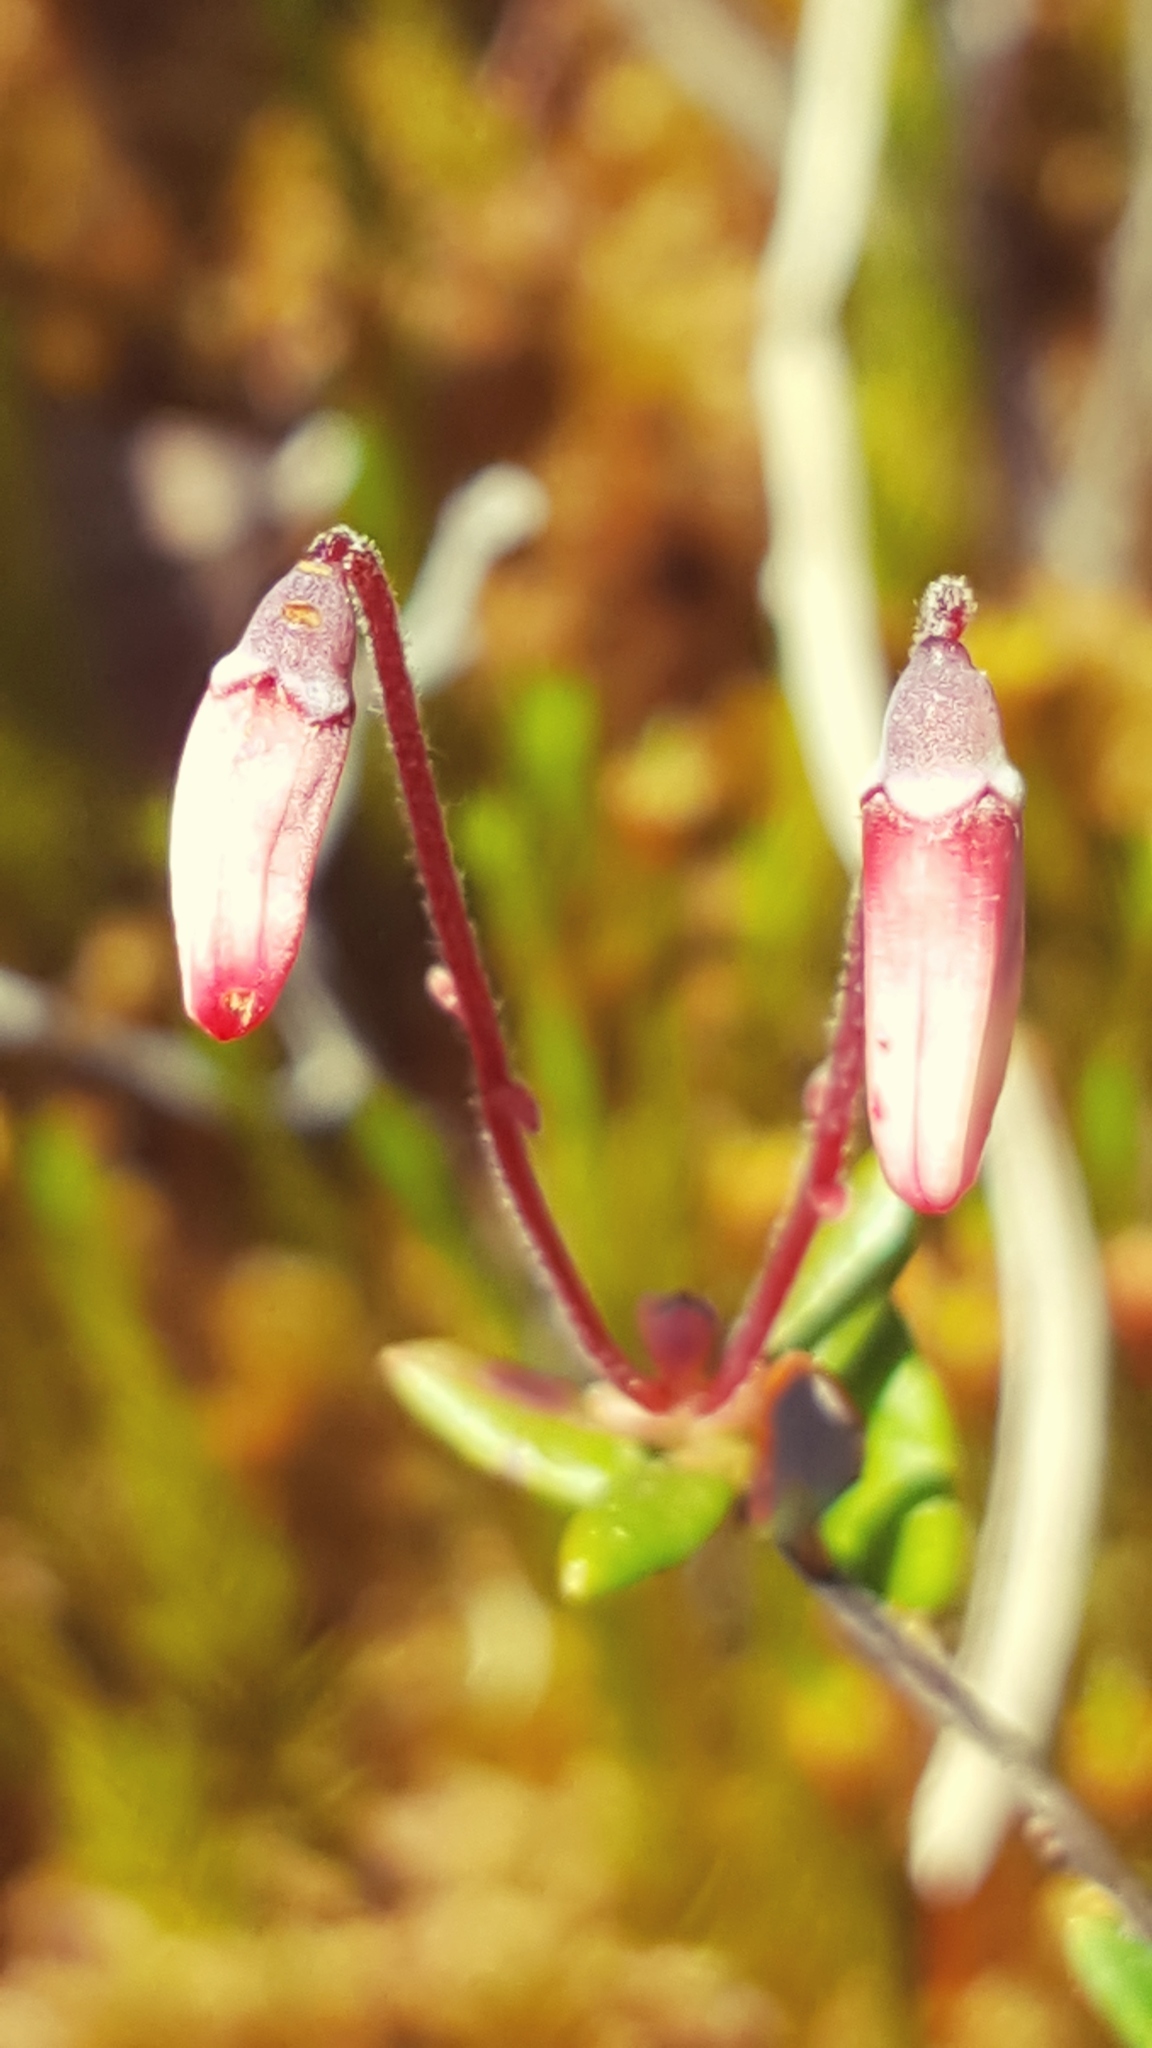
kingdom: Plantae
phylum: Tracheophyta
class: Magnoliopsida
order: Ericales
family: Ericaceae
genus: Vaccinium
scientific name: Vaccinium oxycoccos
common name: Cranberry
